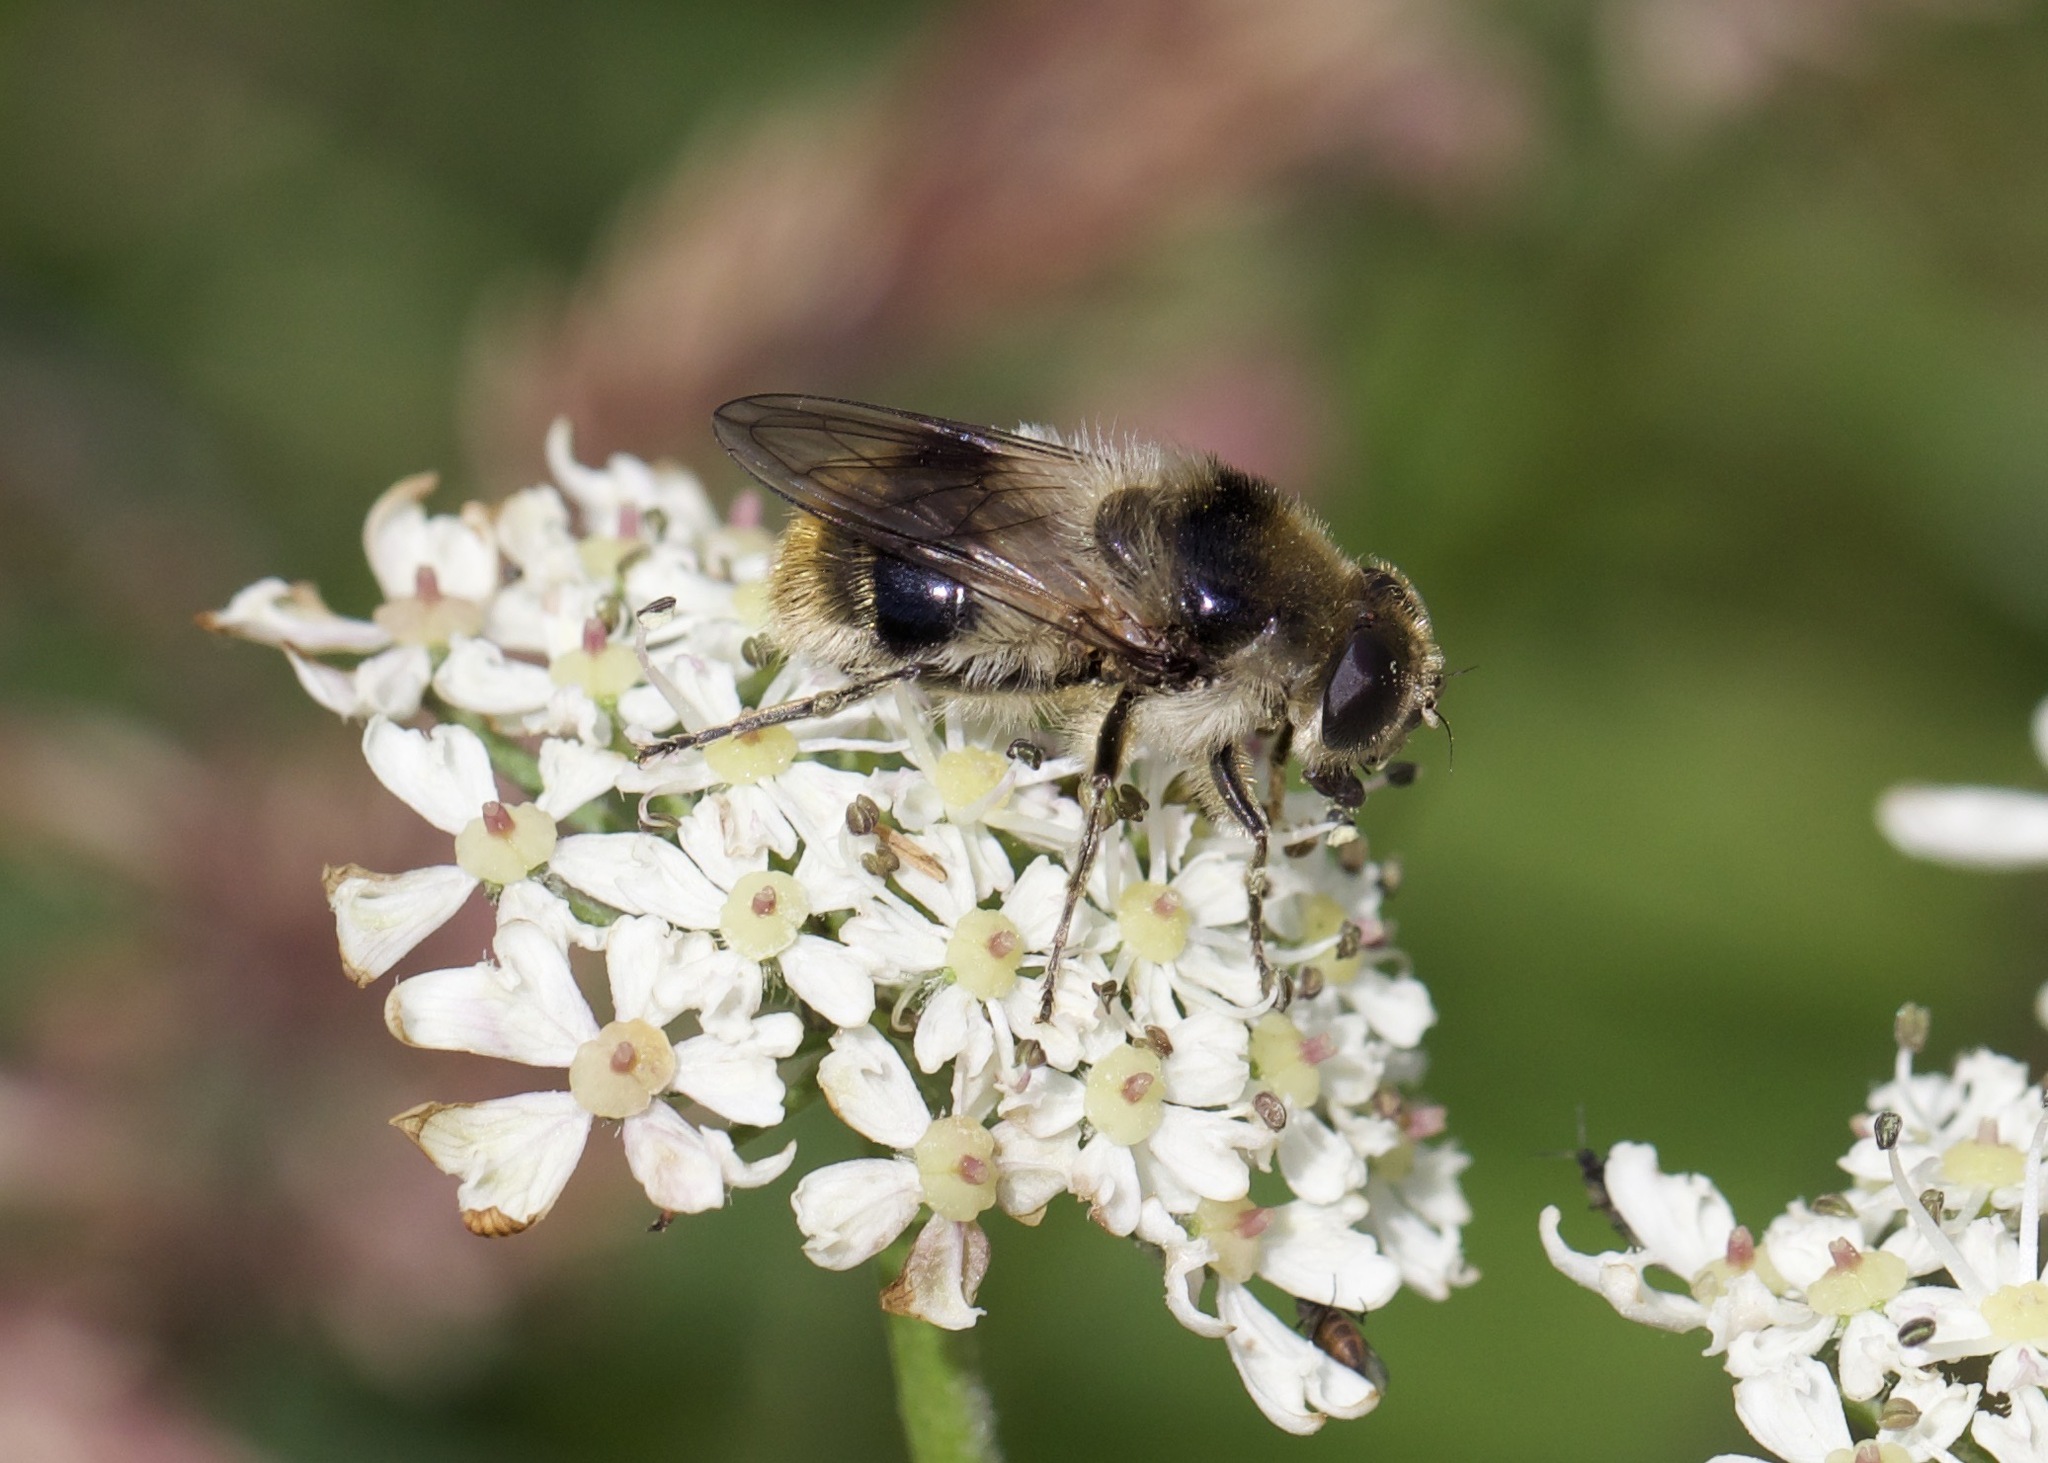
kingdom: Animalia
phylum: Arthropoda
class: Insecta
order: Diptera
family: Syrphidae
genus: Cheilosia
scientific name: Cheilosia illustrata
